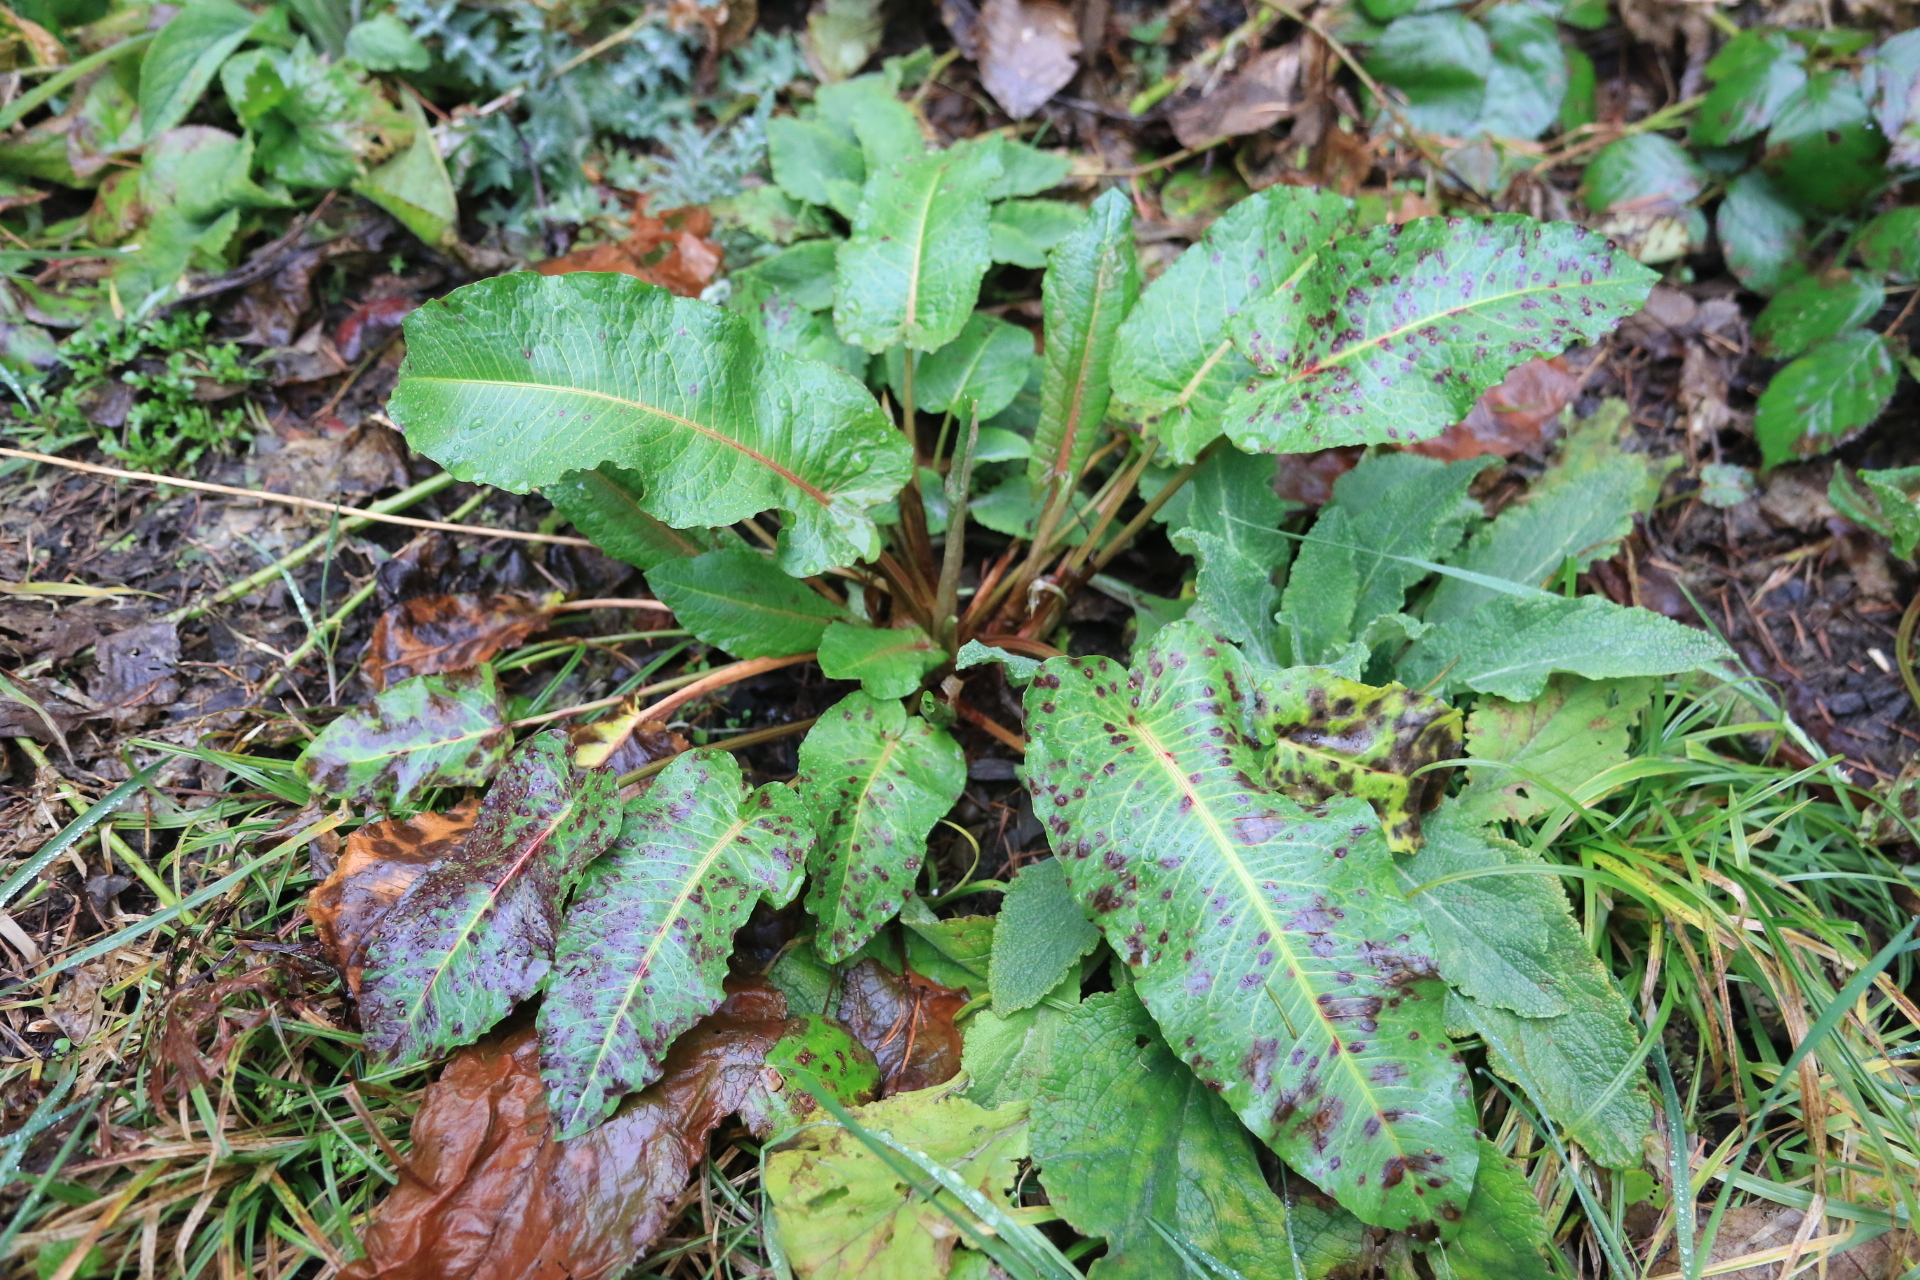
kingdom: Fungi
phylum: Ascomycota
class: Dothideomycetes
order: Mycosphaerellales
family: Mycosphaerellaceae
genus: Ramularia
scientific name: Ramularia rubella
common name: Red dock spot
